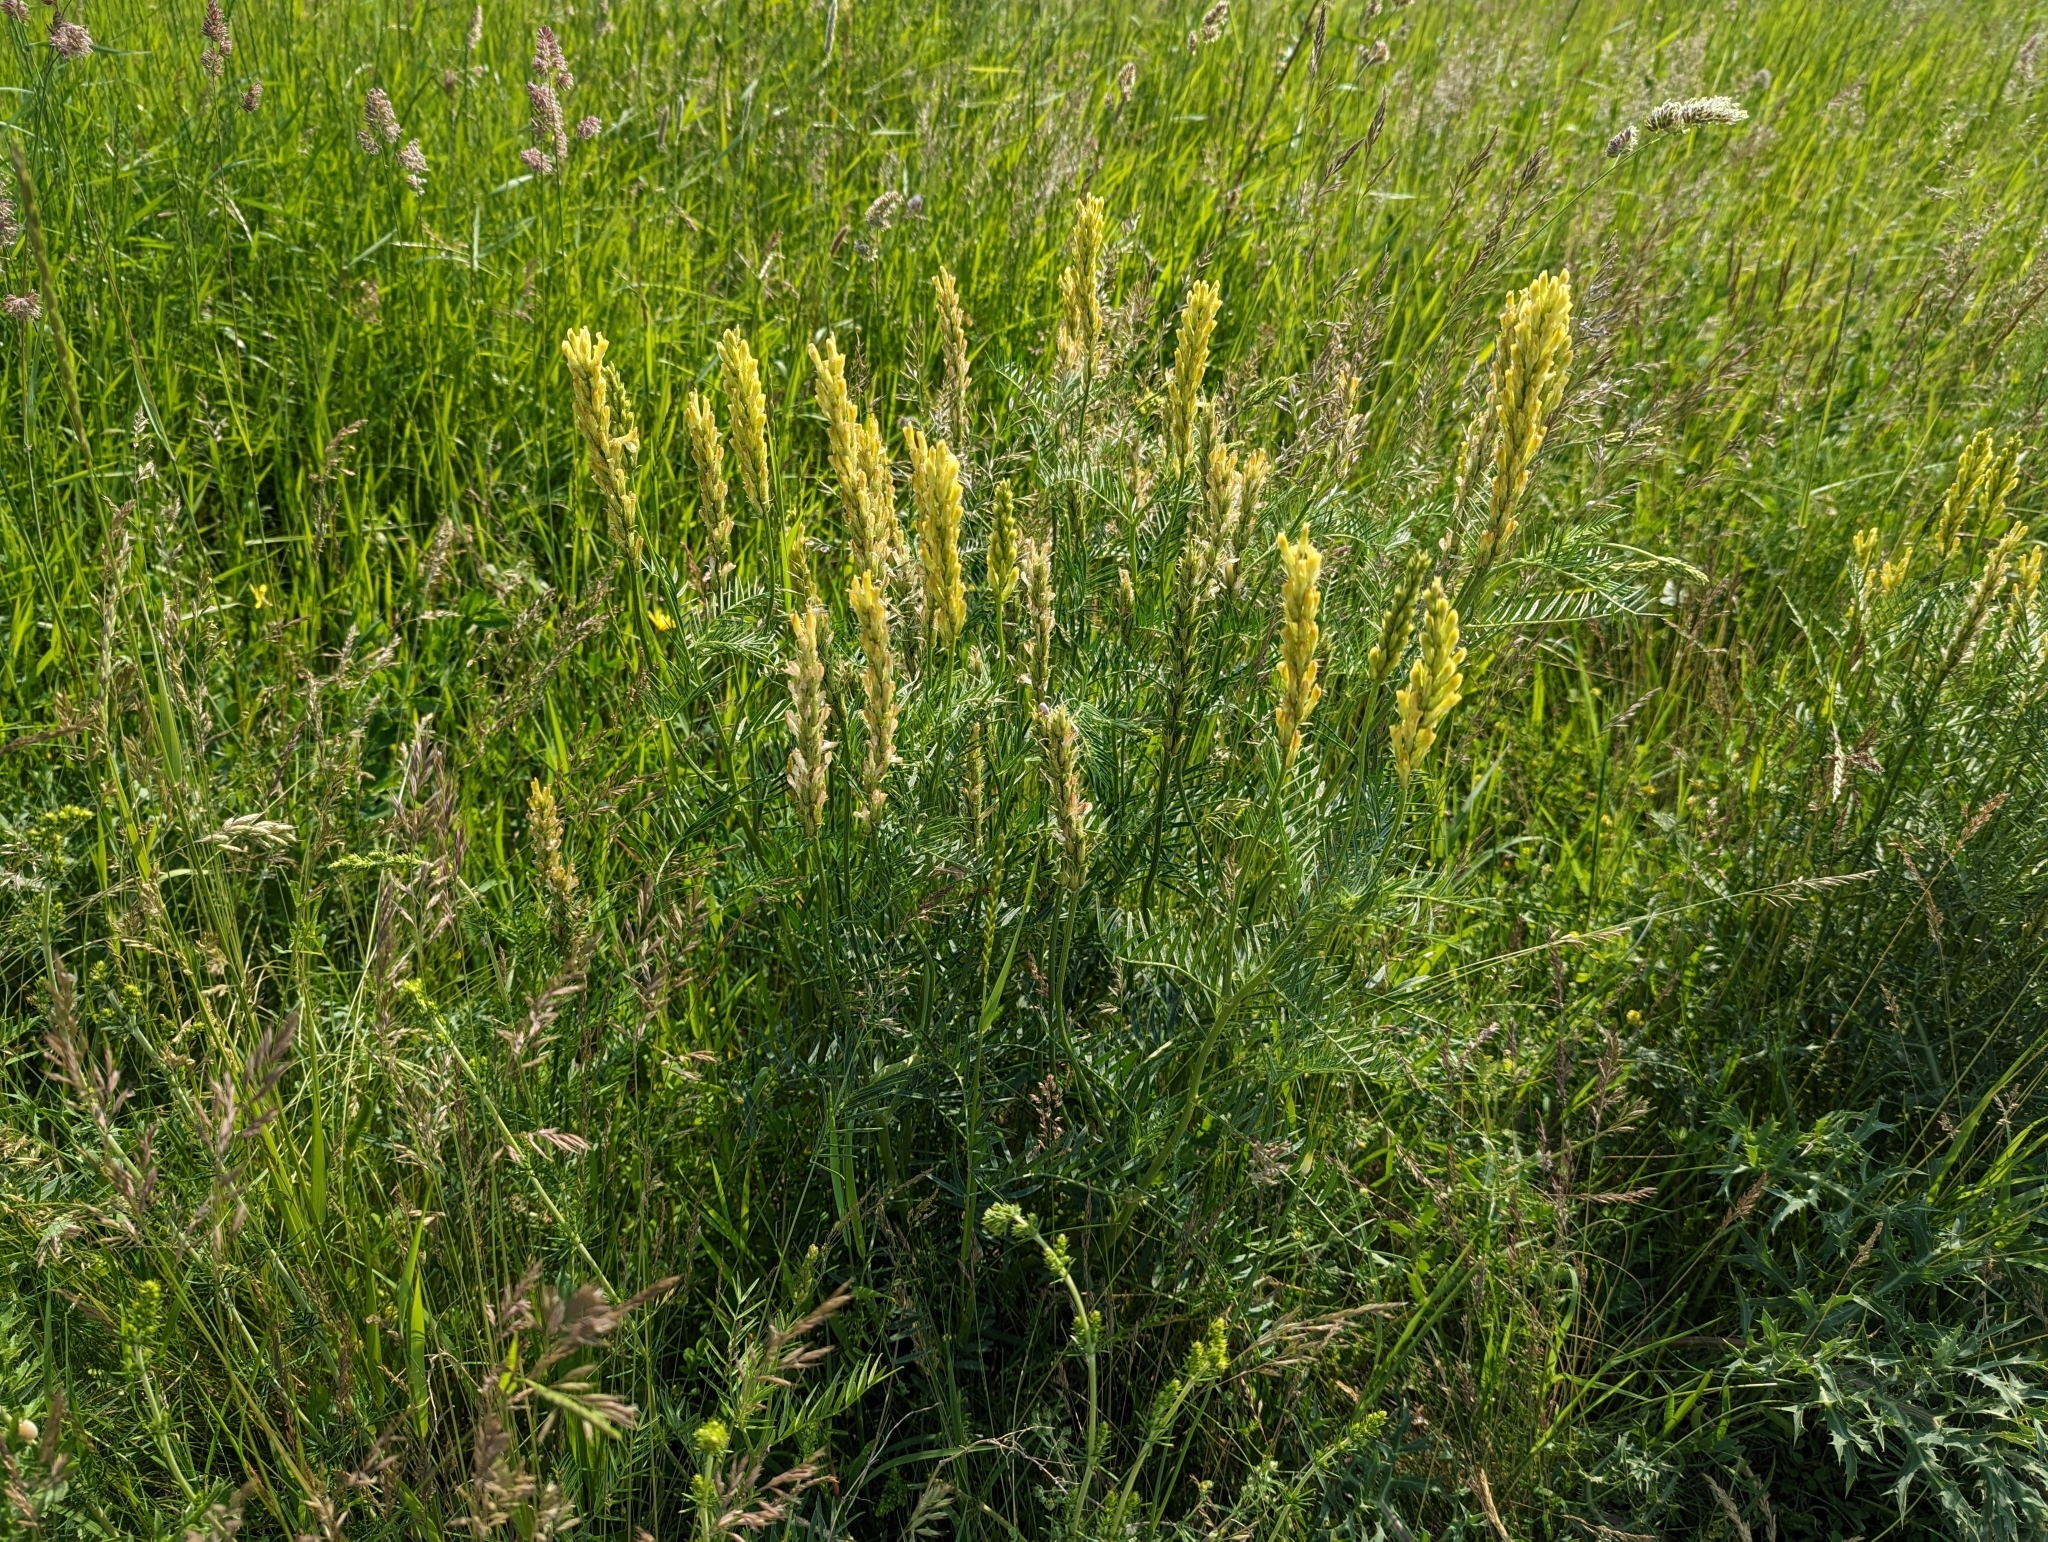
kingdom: Plantae
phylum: Tracheophyta
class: Magnoliopsida
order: Fabales
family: Fabaceae
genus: Astragalus
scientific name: Astragalus asper
